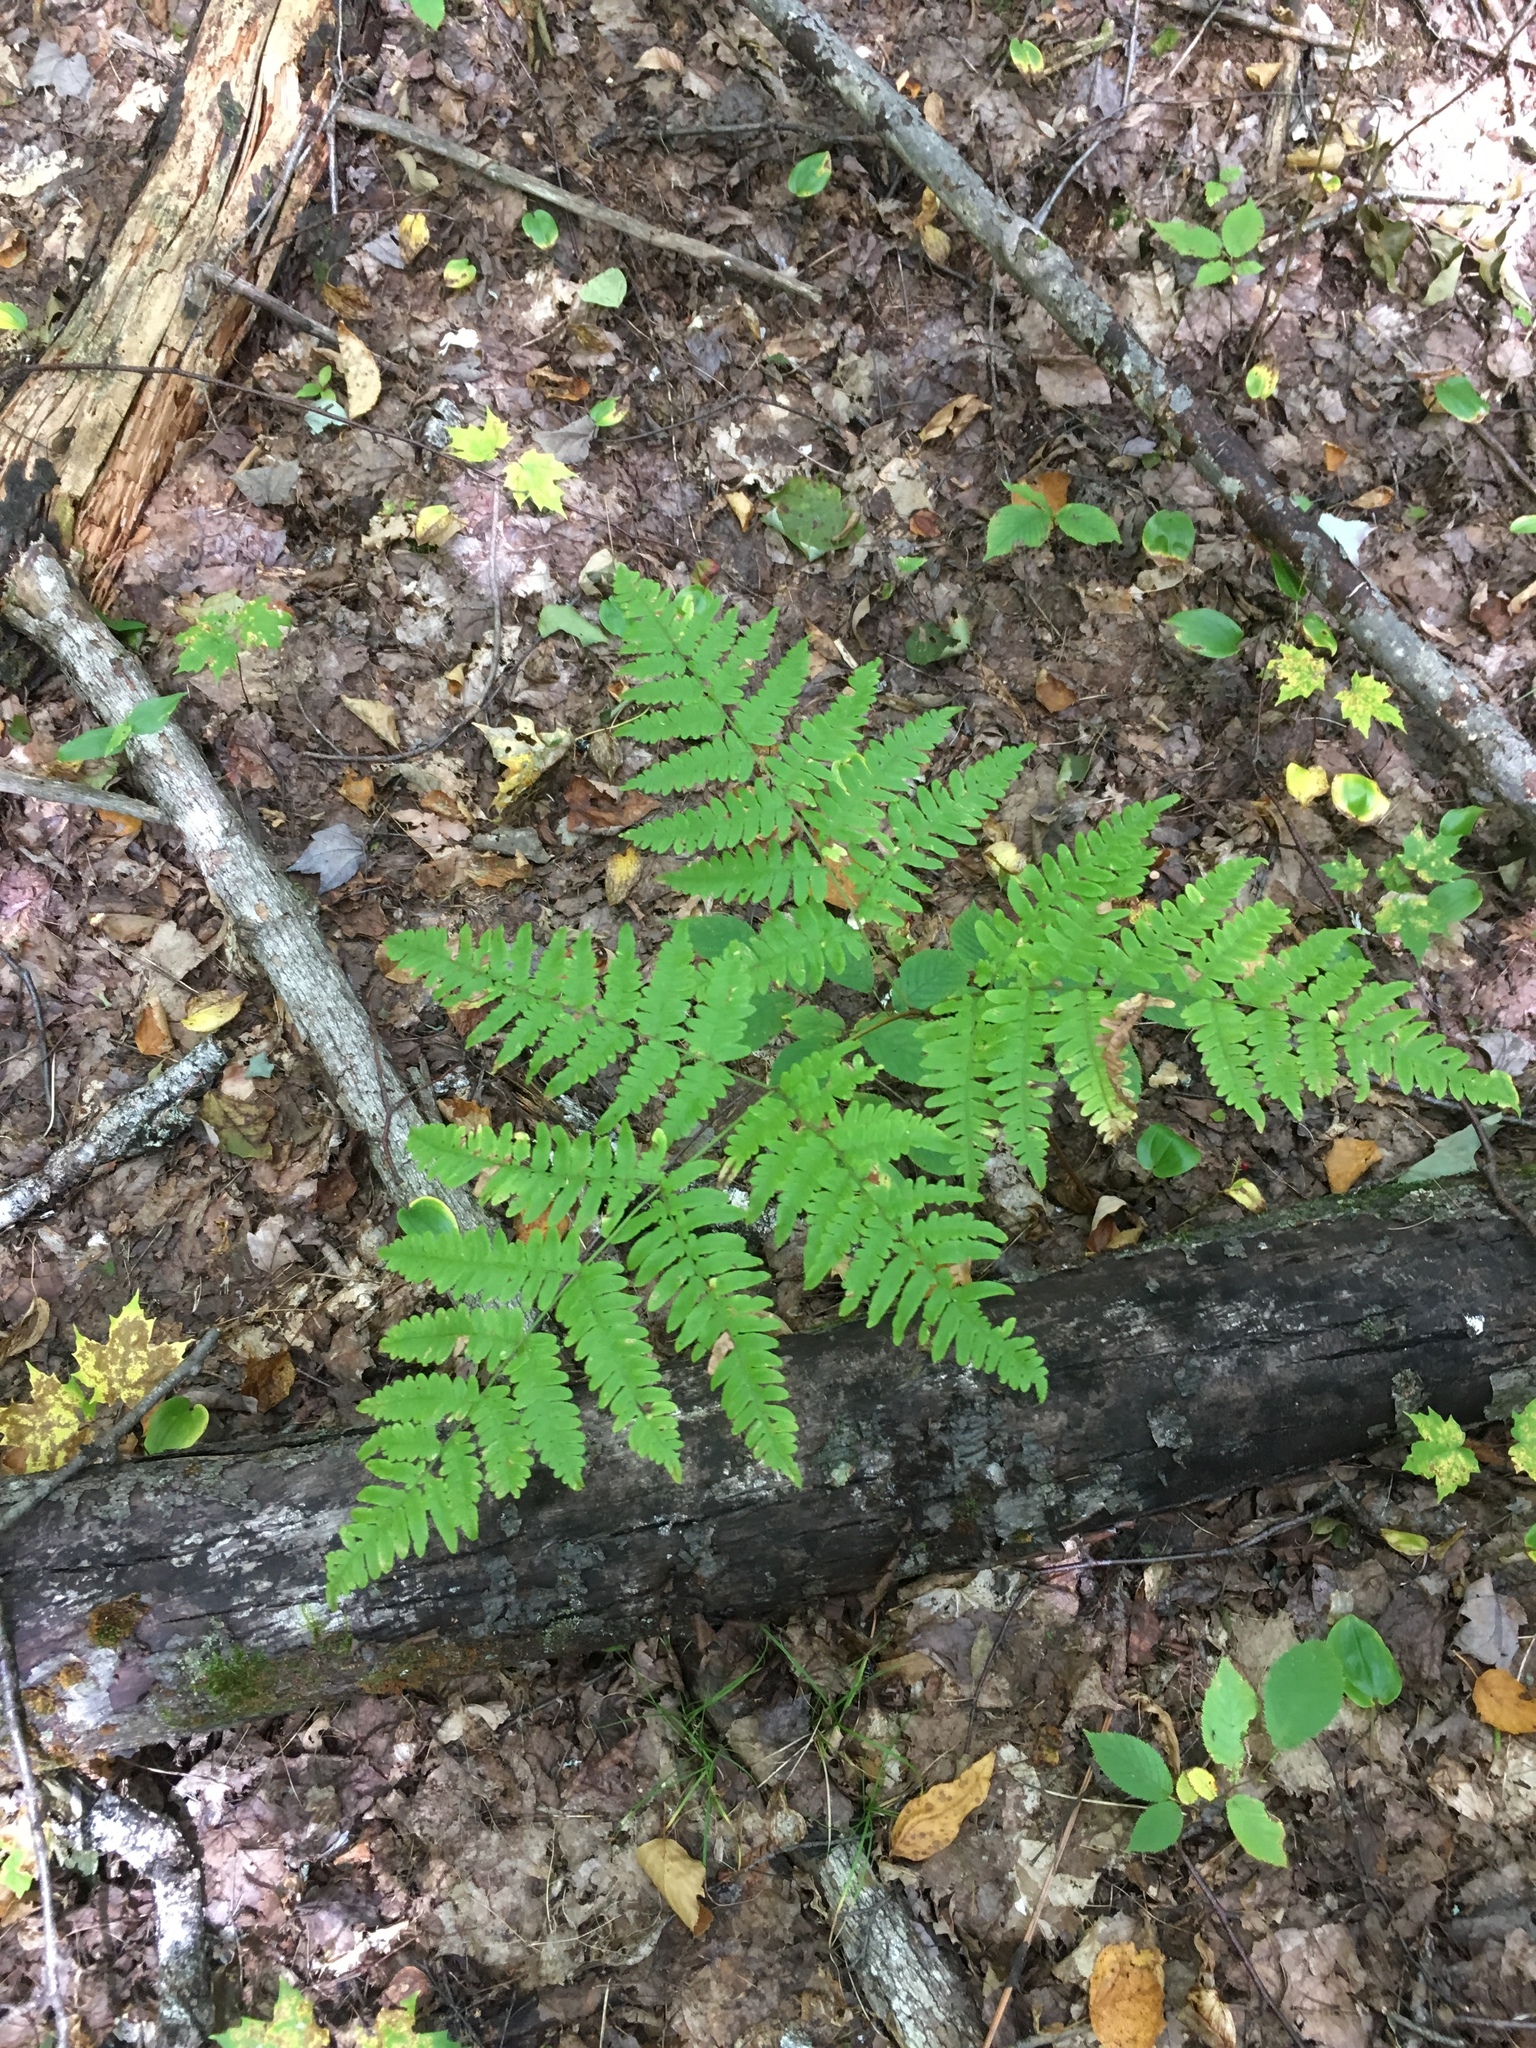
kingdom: Plantae
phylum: Tracheophyta
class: Polypodiopsida
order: Polypodiales
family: Dennstaedtiaceae
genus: Pteridium
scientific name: Pteridium aquilinum
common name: Bracken
